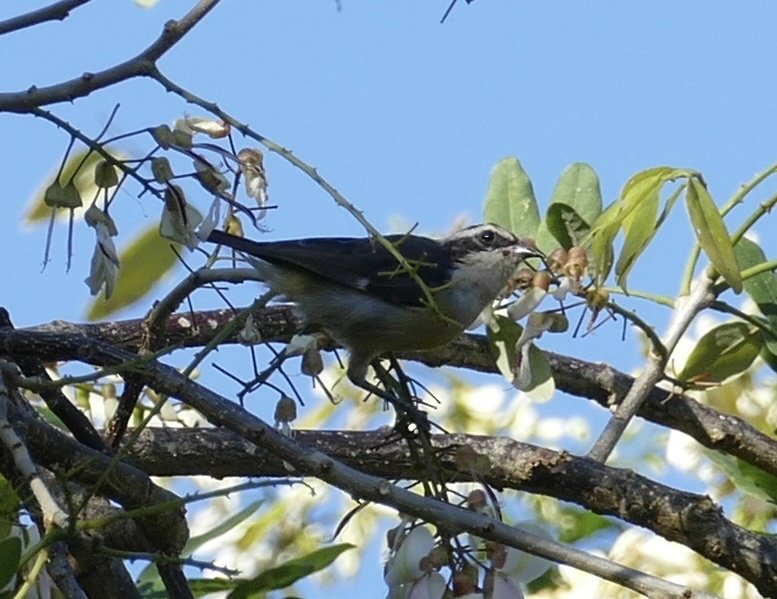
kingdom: Animalia
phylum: Chordata
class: Aves
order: Passeriformes
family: Thraupidae
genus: Coereba
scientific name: Coereba flaveola
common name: Bananaquit
